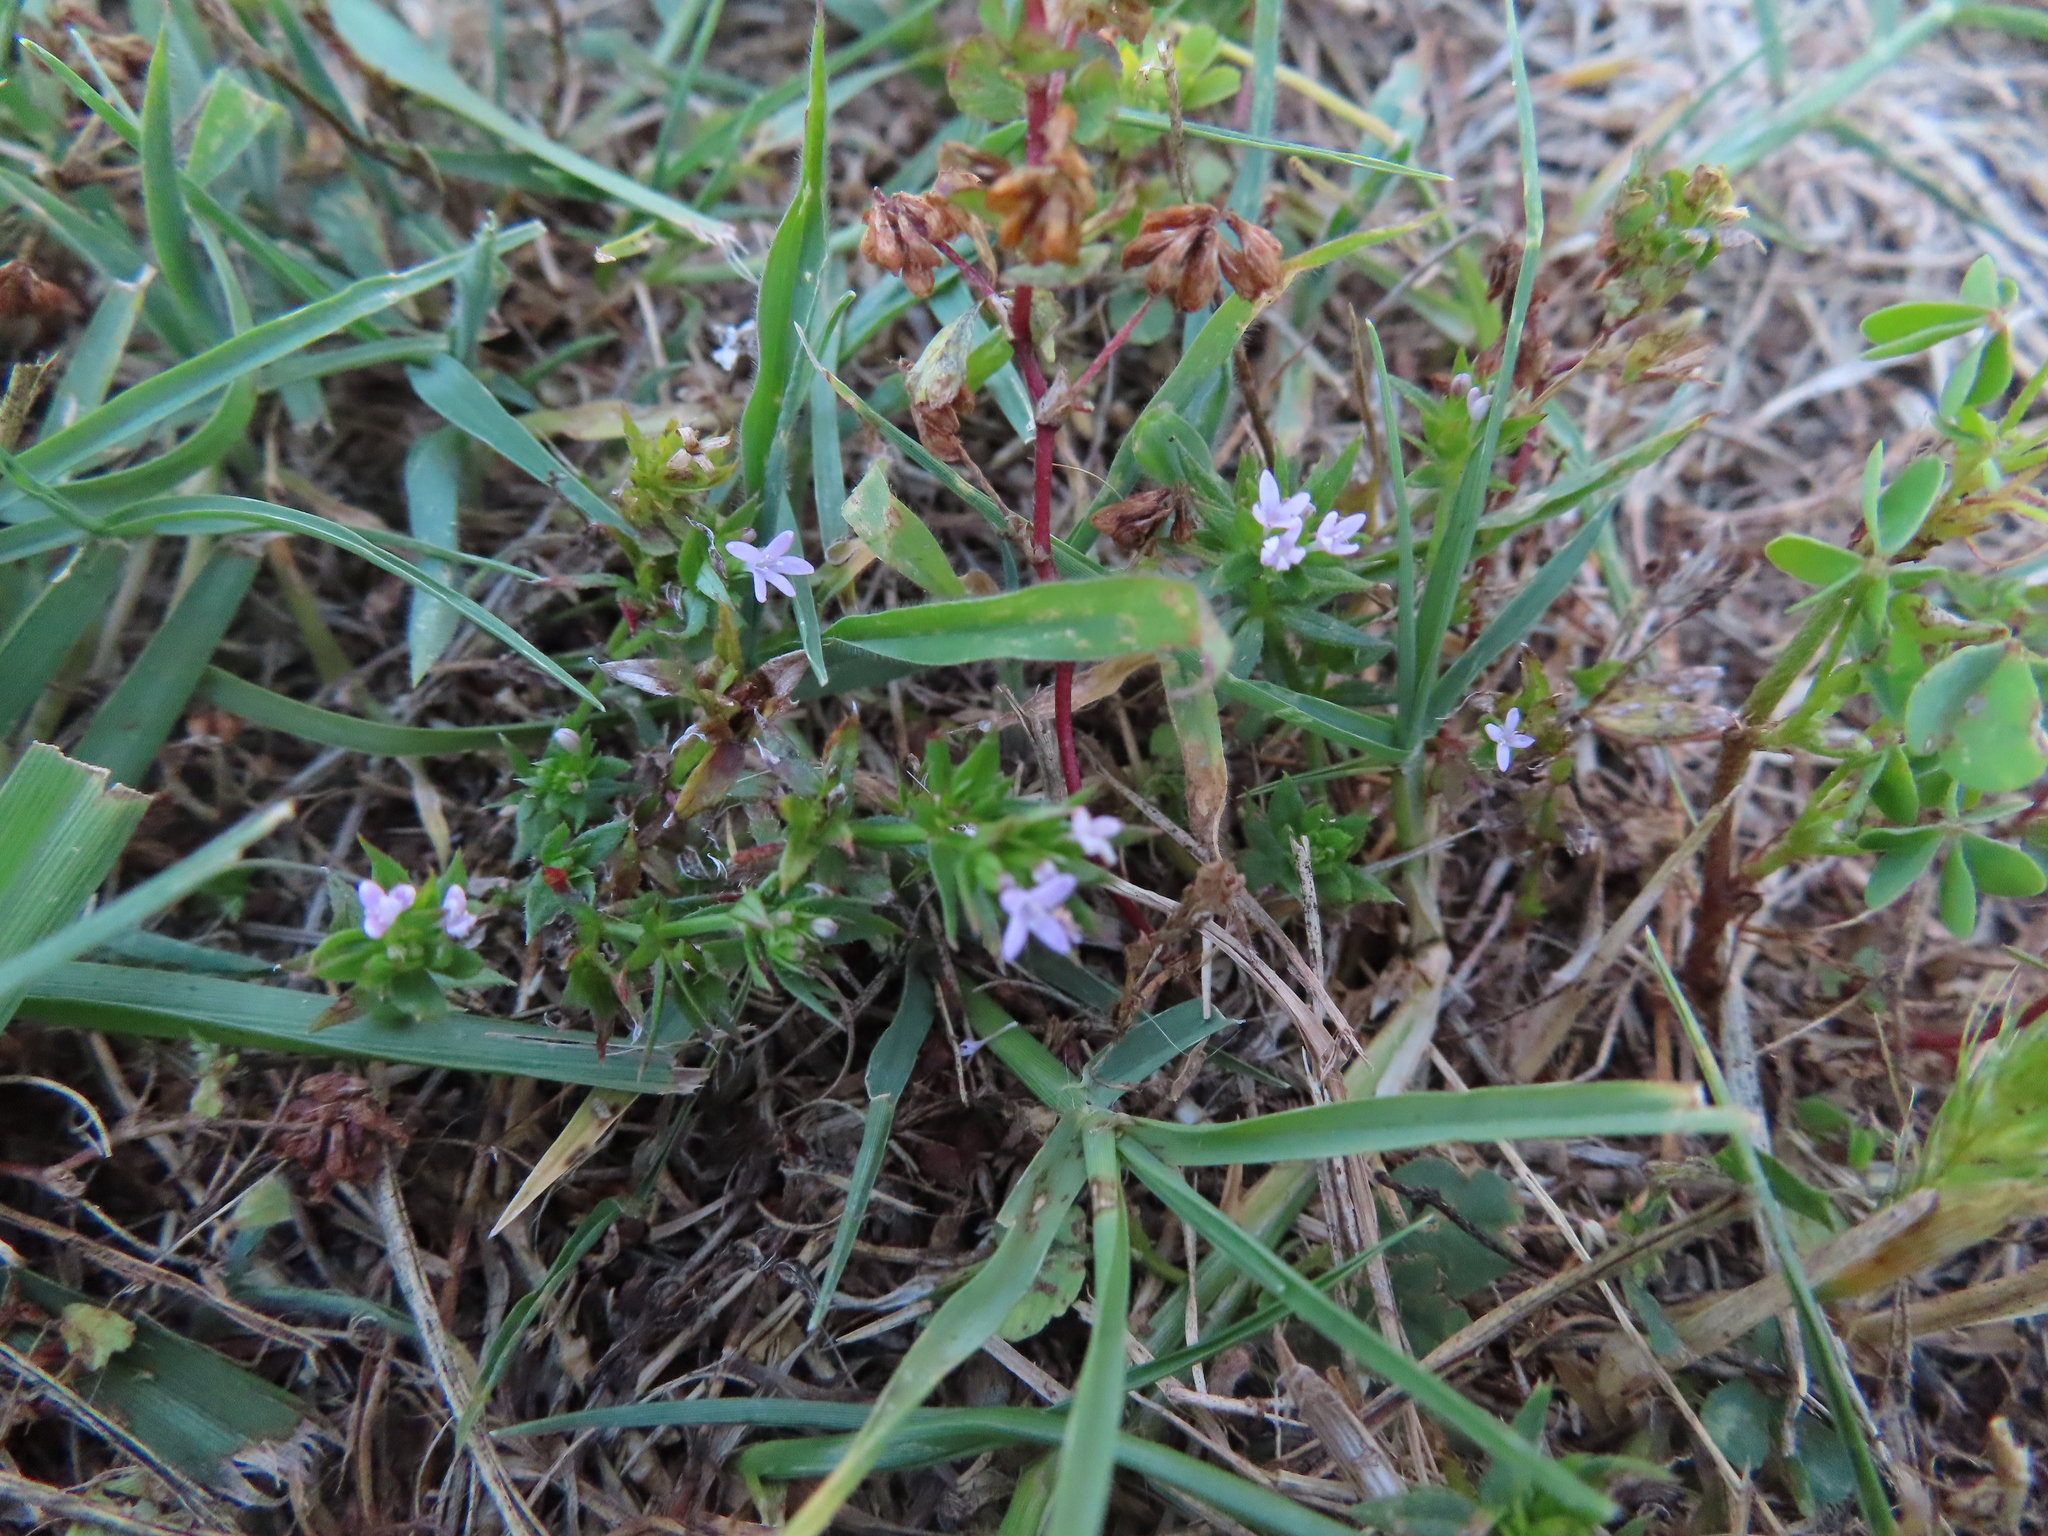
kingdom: Plantae
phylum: Tracheophyta
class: Magnoliopsida
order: Gentianales
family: Rubiaceae
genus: Sherardia
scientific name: Sherardia arvensis
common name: Field madder
